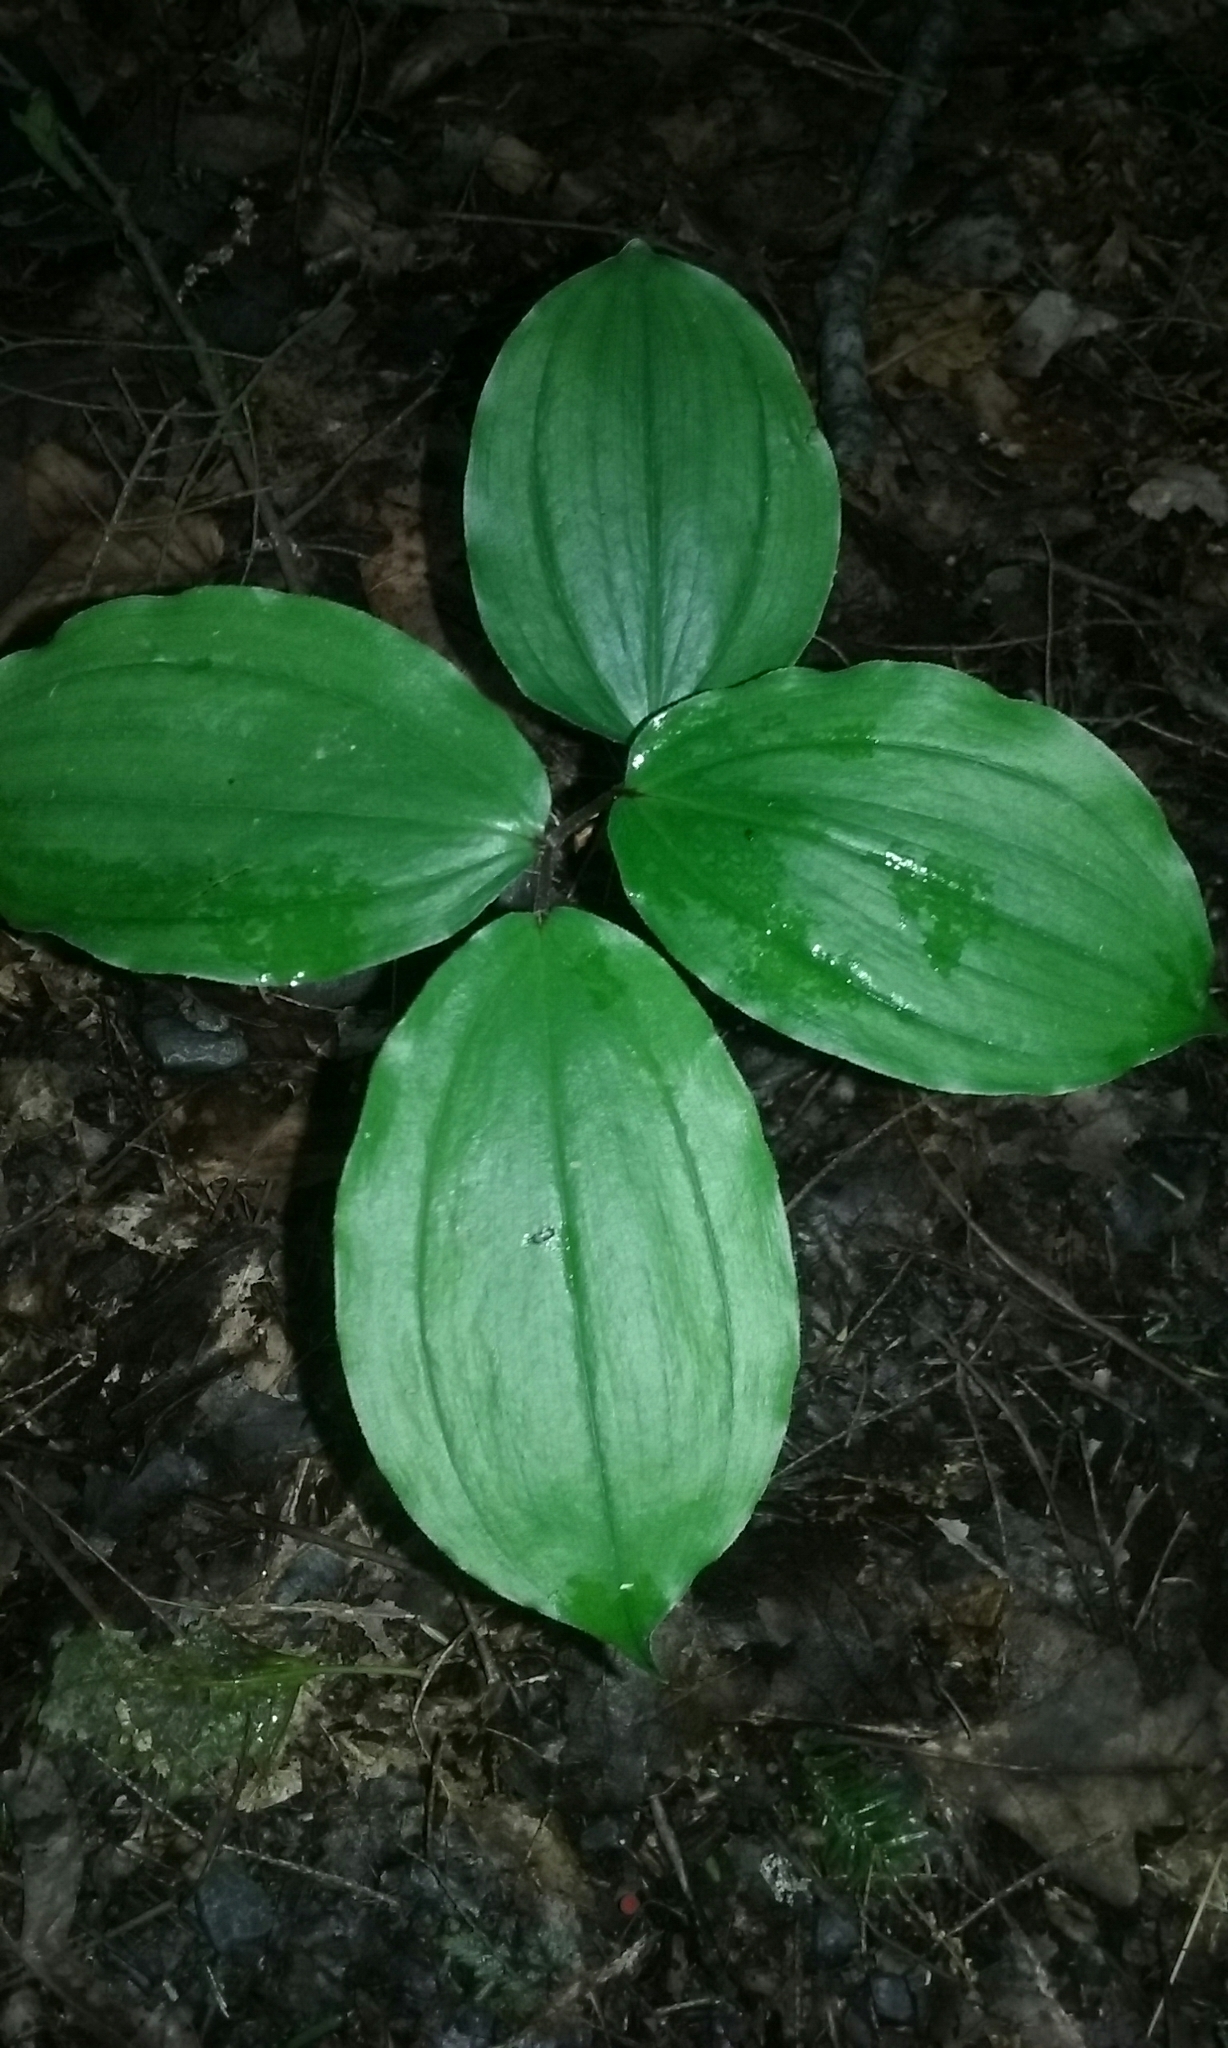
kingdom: Plantae
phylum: Tracheophyta
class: Liliopsida
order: Asparagales
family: Asparagaceae
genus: Maianthemum
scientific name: Maianthemum racemosum
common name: False spikenard
